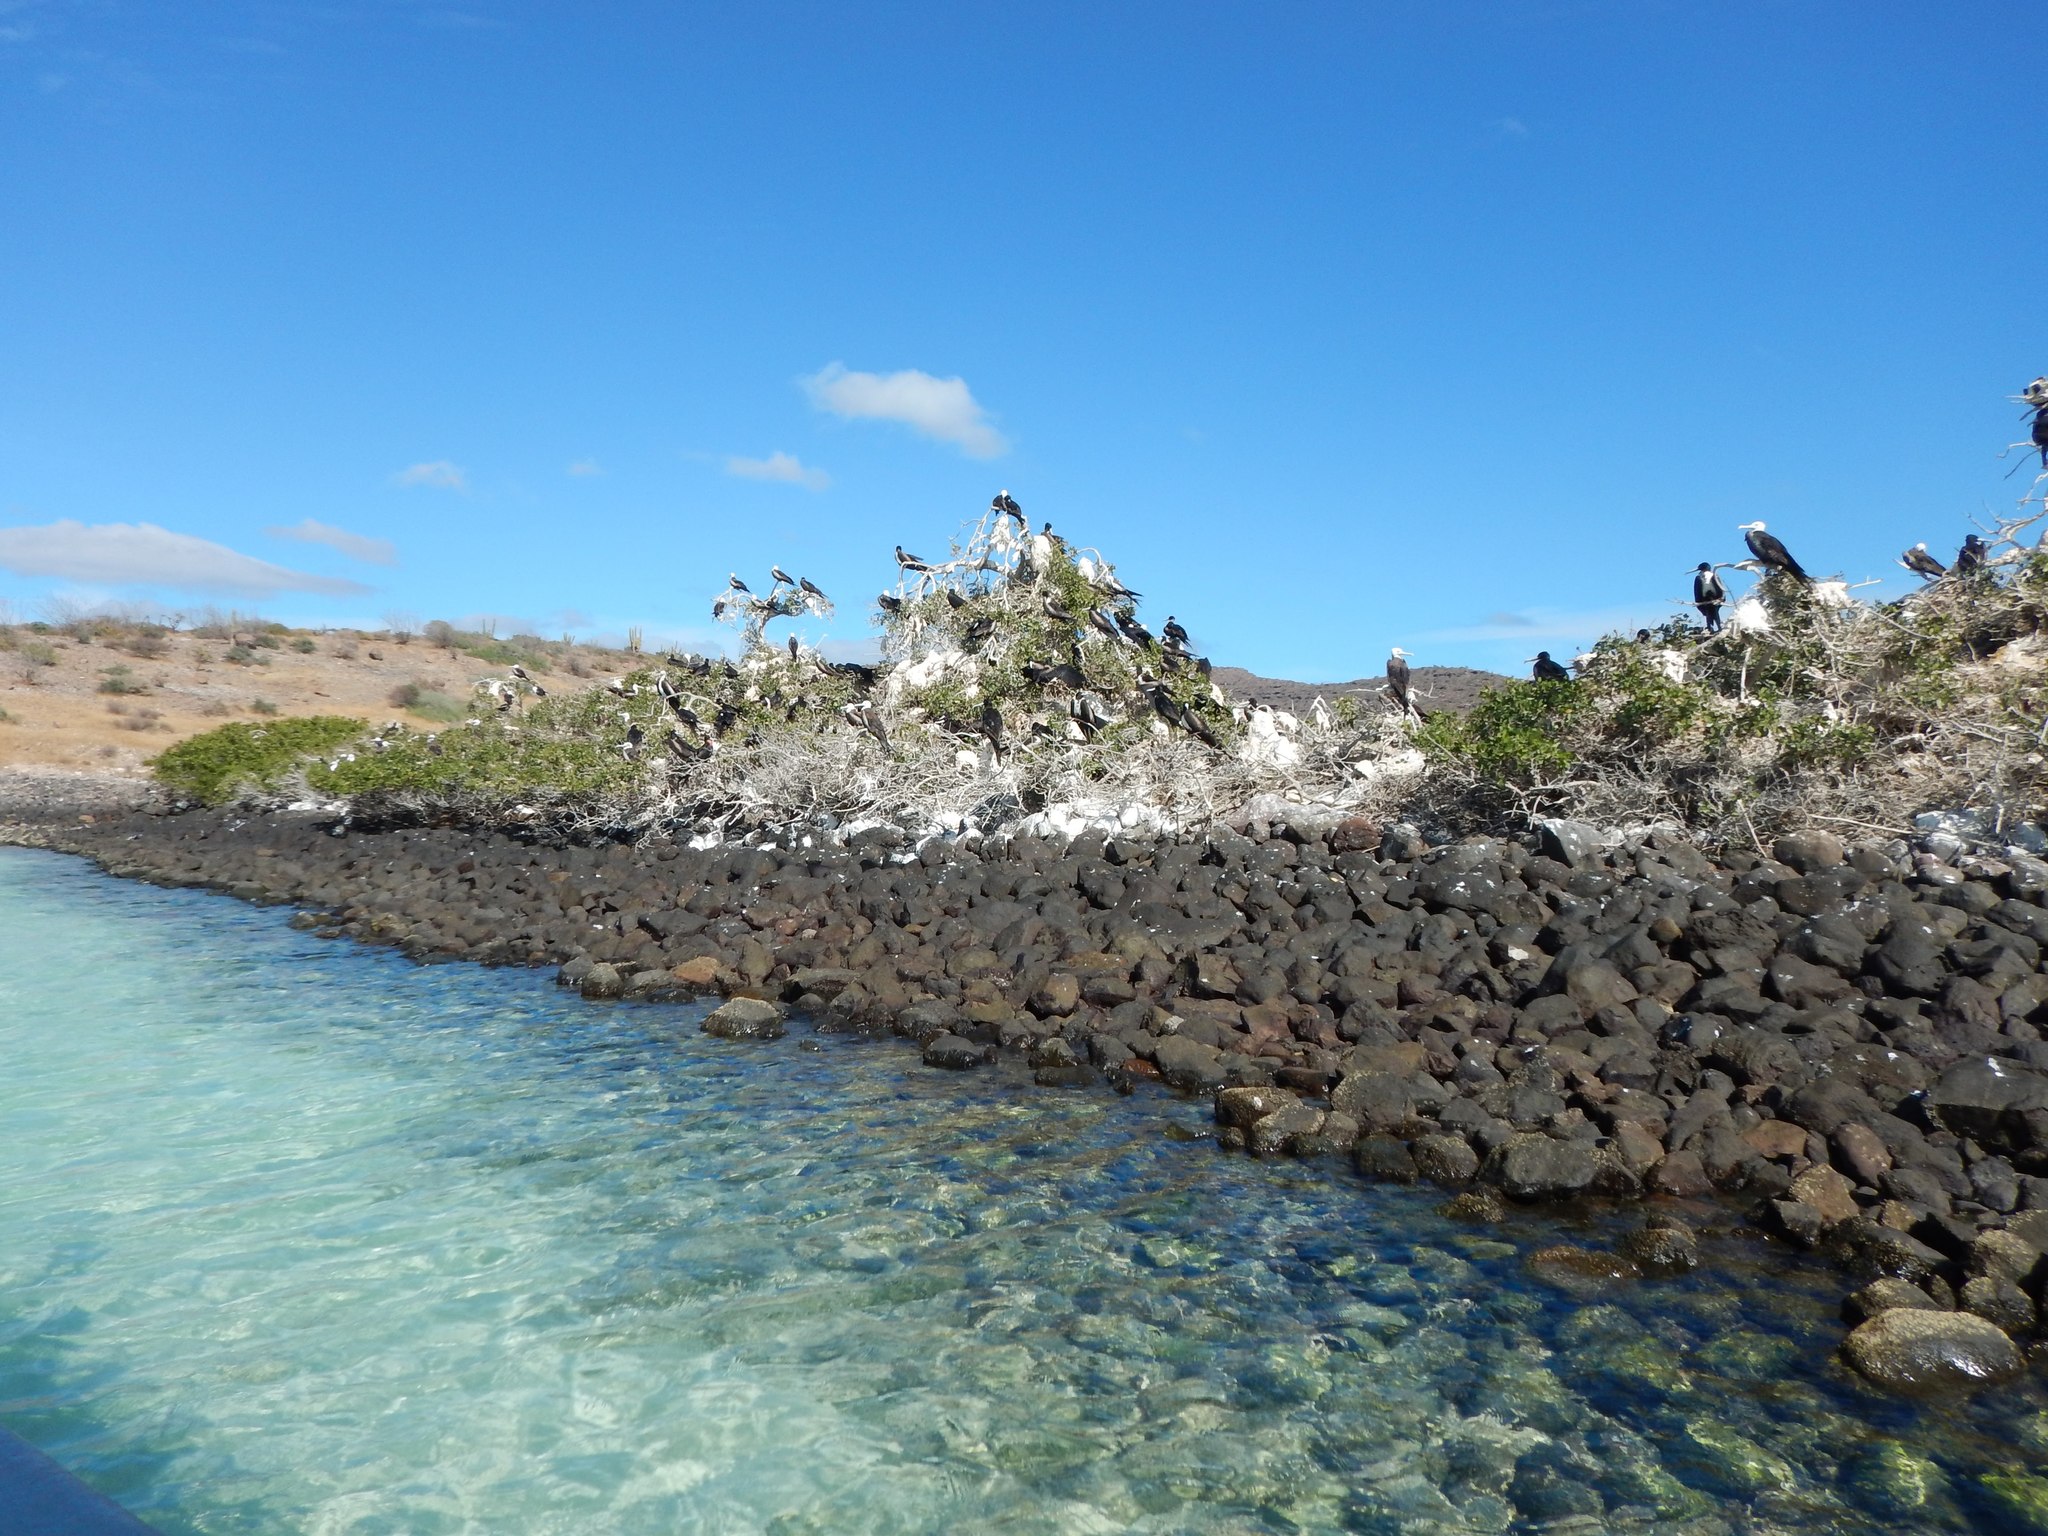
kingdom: Animalia
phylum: Chordata
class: Aves
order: Suliformes
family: Fregatidae
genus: Fregata
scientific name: Fregata magnificens
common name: Magnificent frigatebird
